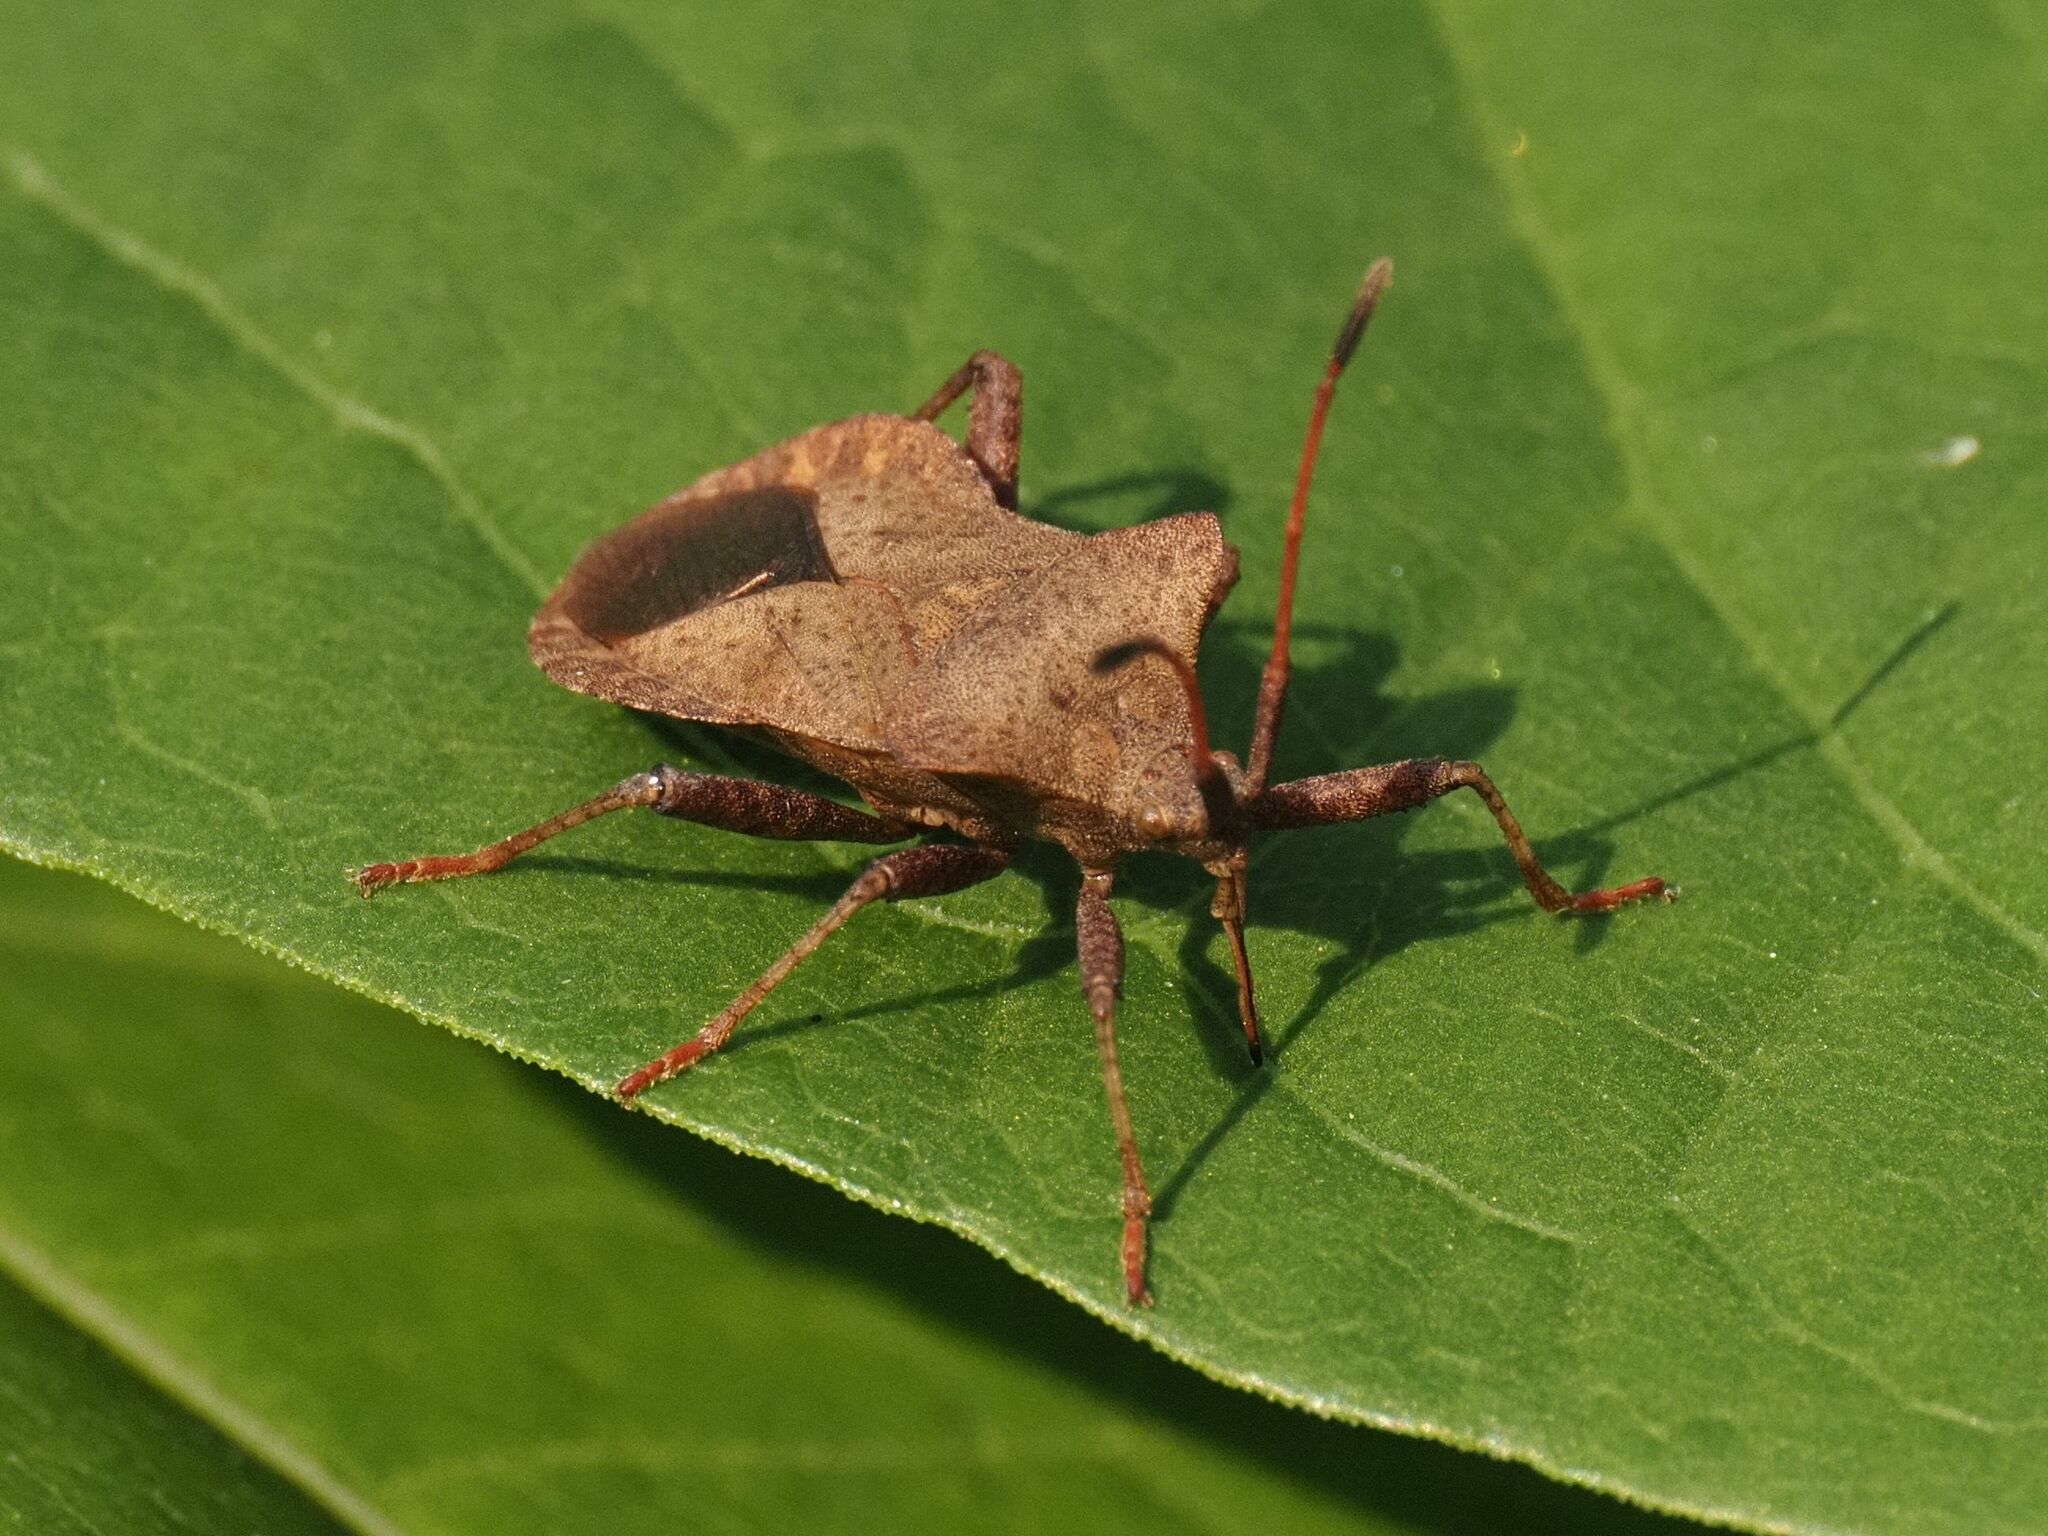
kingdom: Animalia
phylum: Arthropoda
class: Insecta
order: Hemiptera
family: Coreidae
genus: Coreus
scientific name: Coreus marginatus
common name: Dock bug
